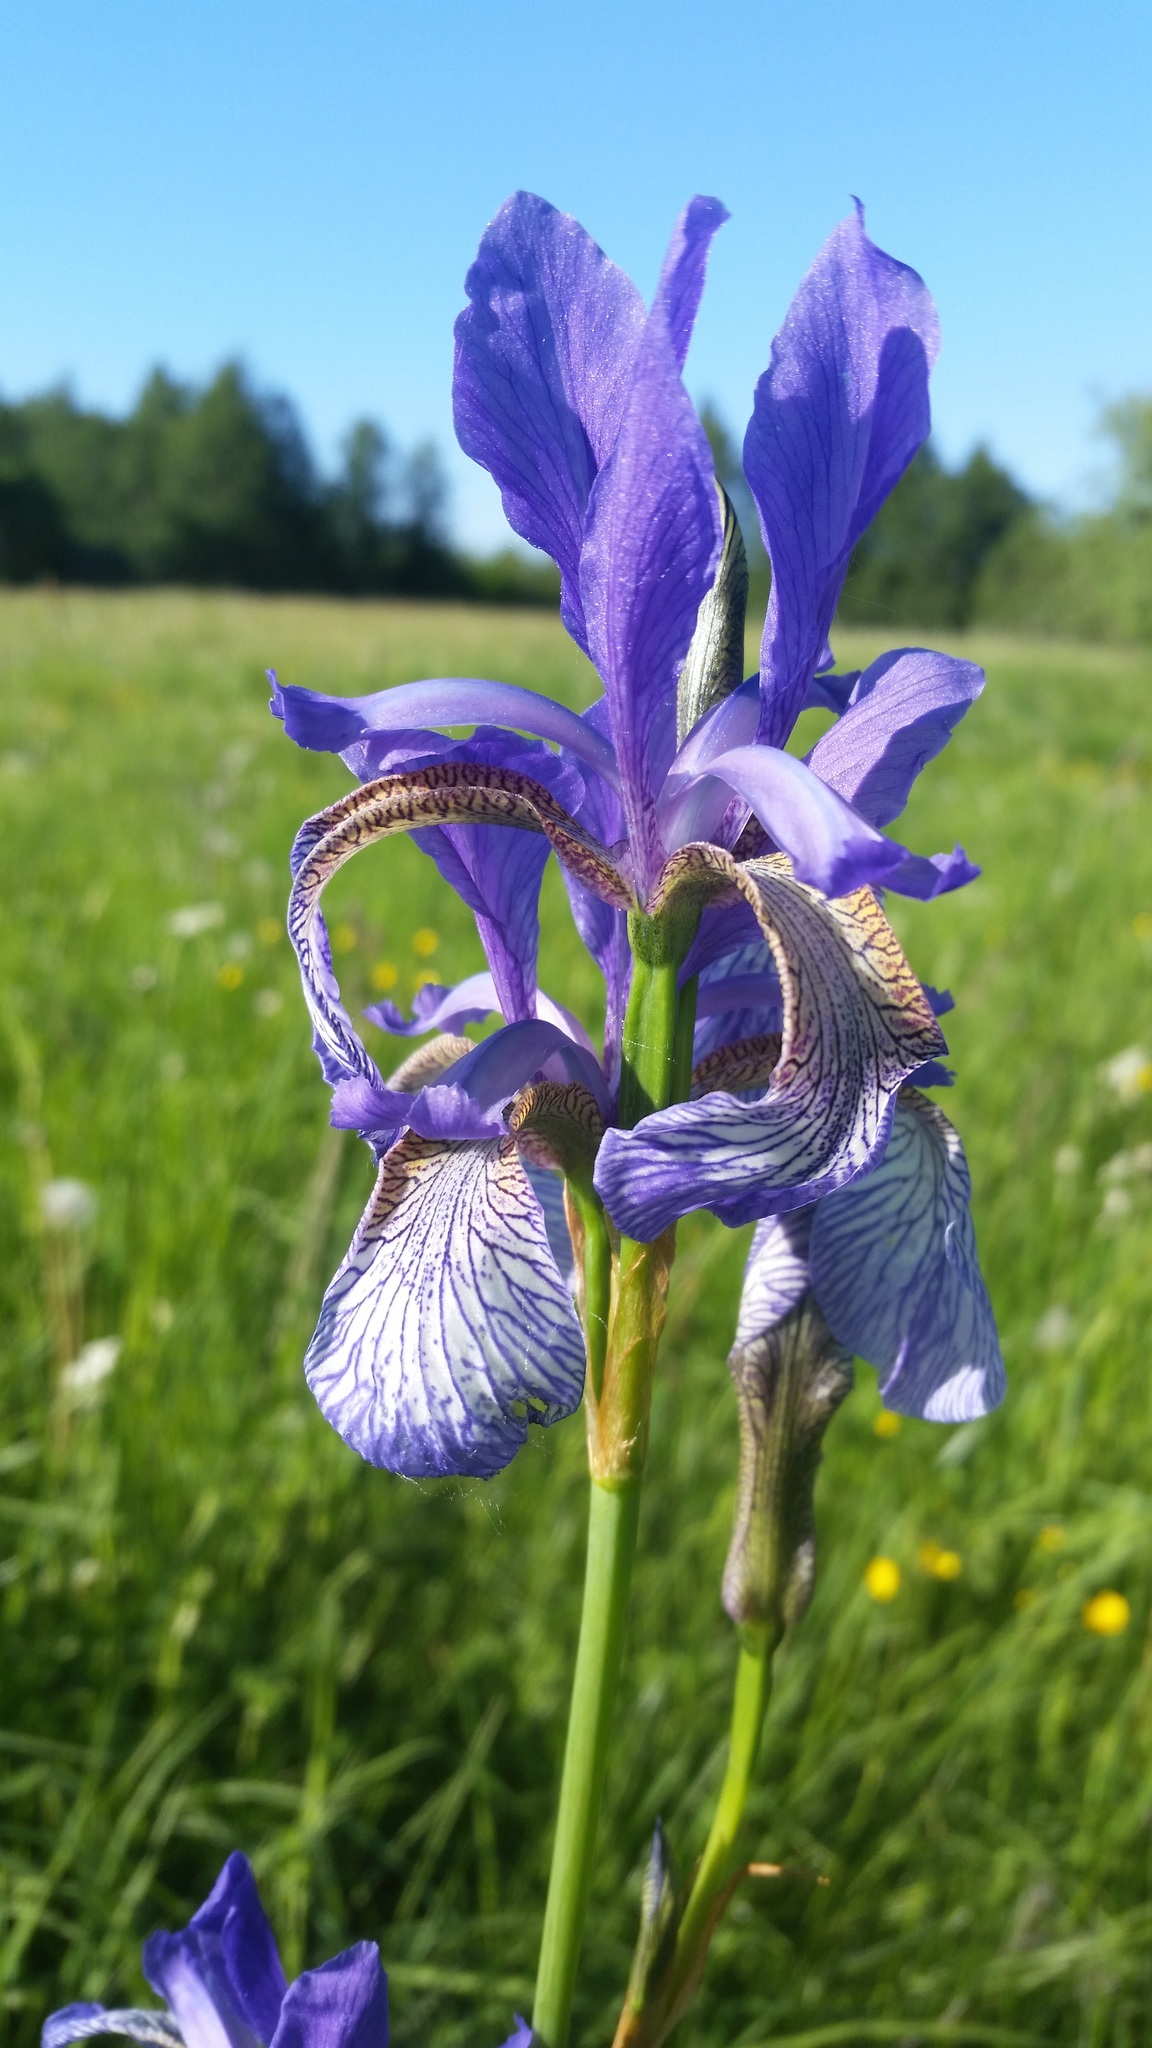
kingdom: Plantae
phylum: Tracheophyta
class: Liliopsida
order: Asparagales
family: Iridaceae
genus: Iris
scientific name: Iris sibirica
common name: Siberian iris
